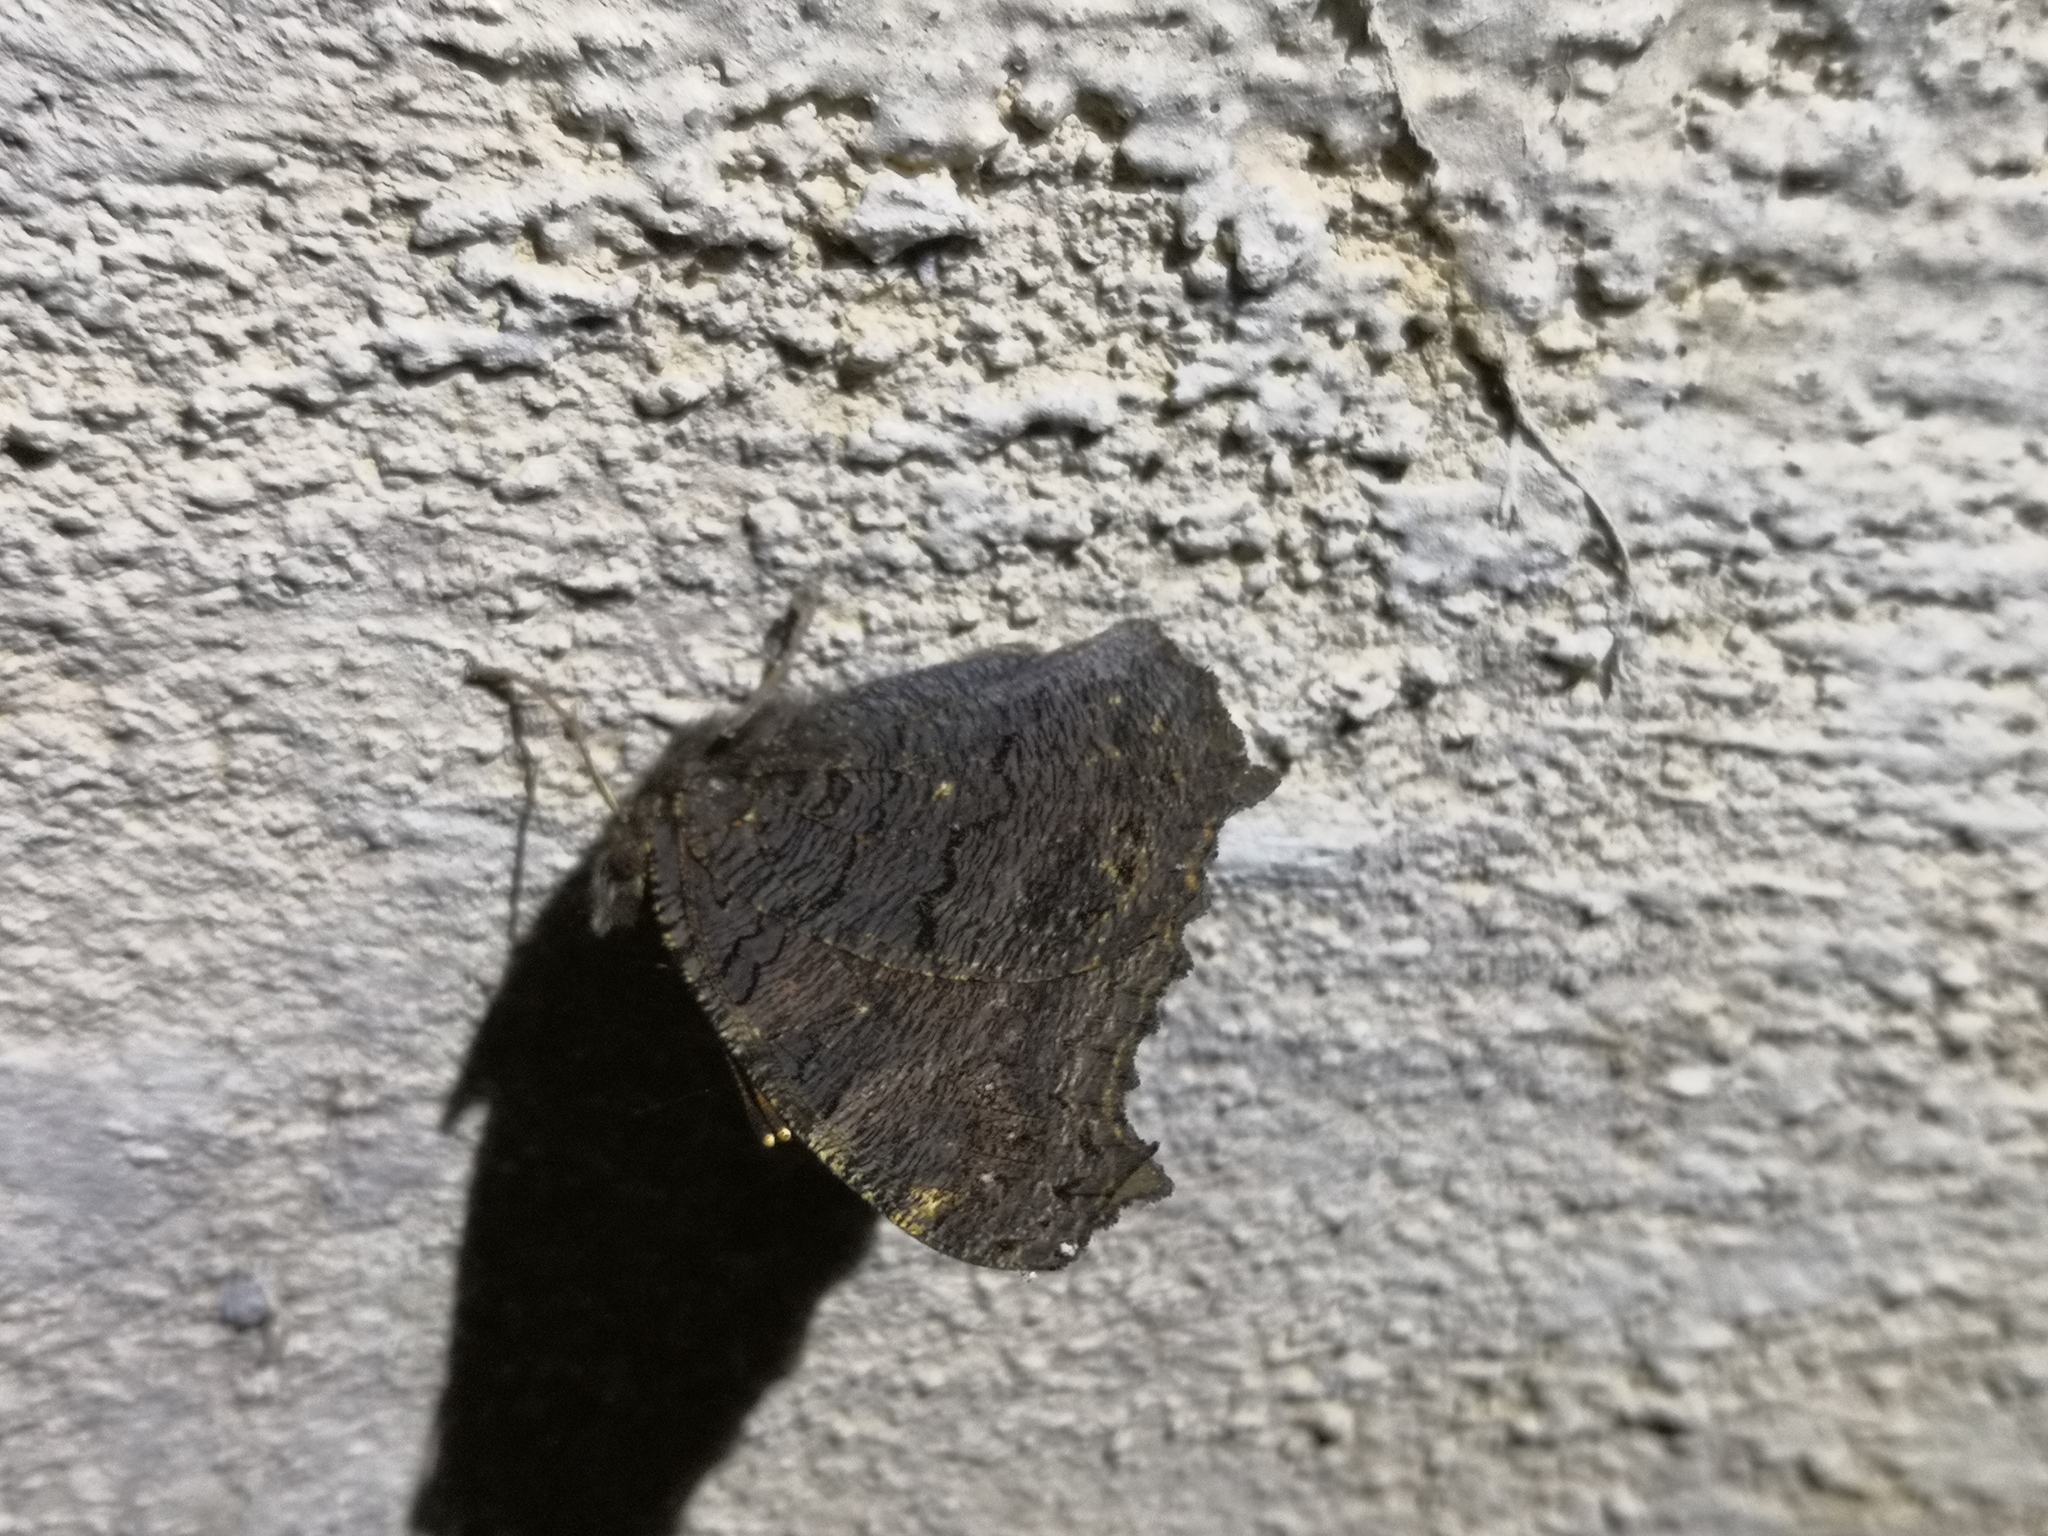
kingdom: Animalia
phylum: Arthropoda
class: Insecta
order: Lepidoptera
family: Nymphalidae
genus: Aglais
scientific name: Aglais io
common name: Peacock
